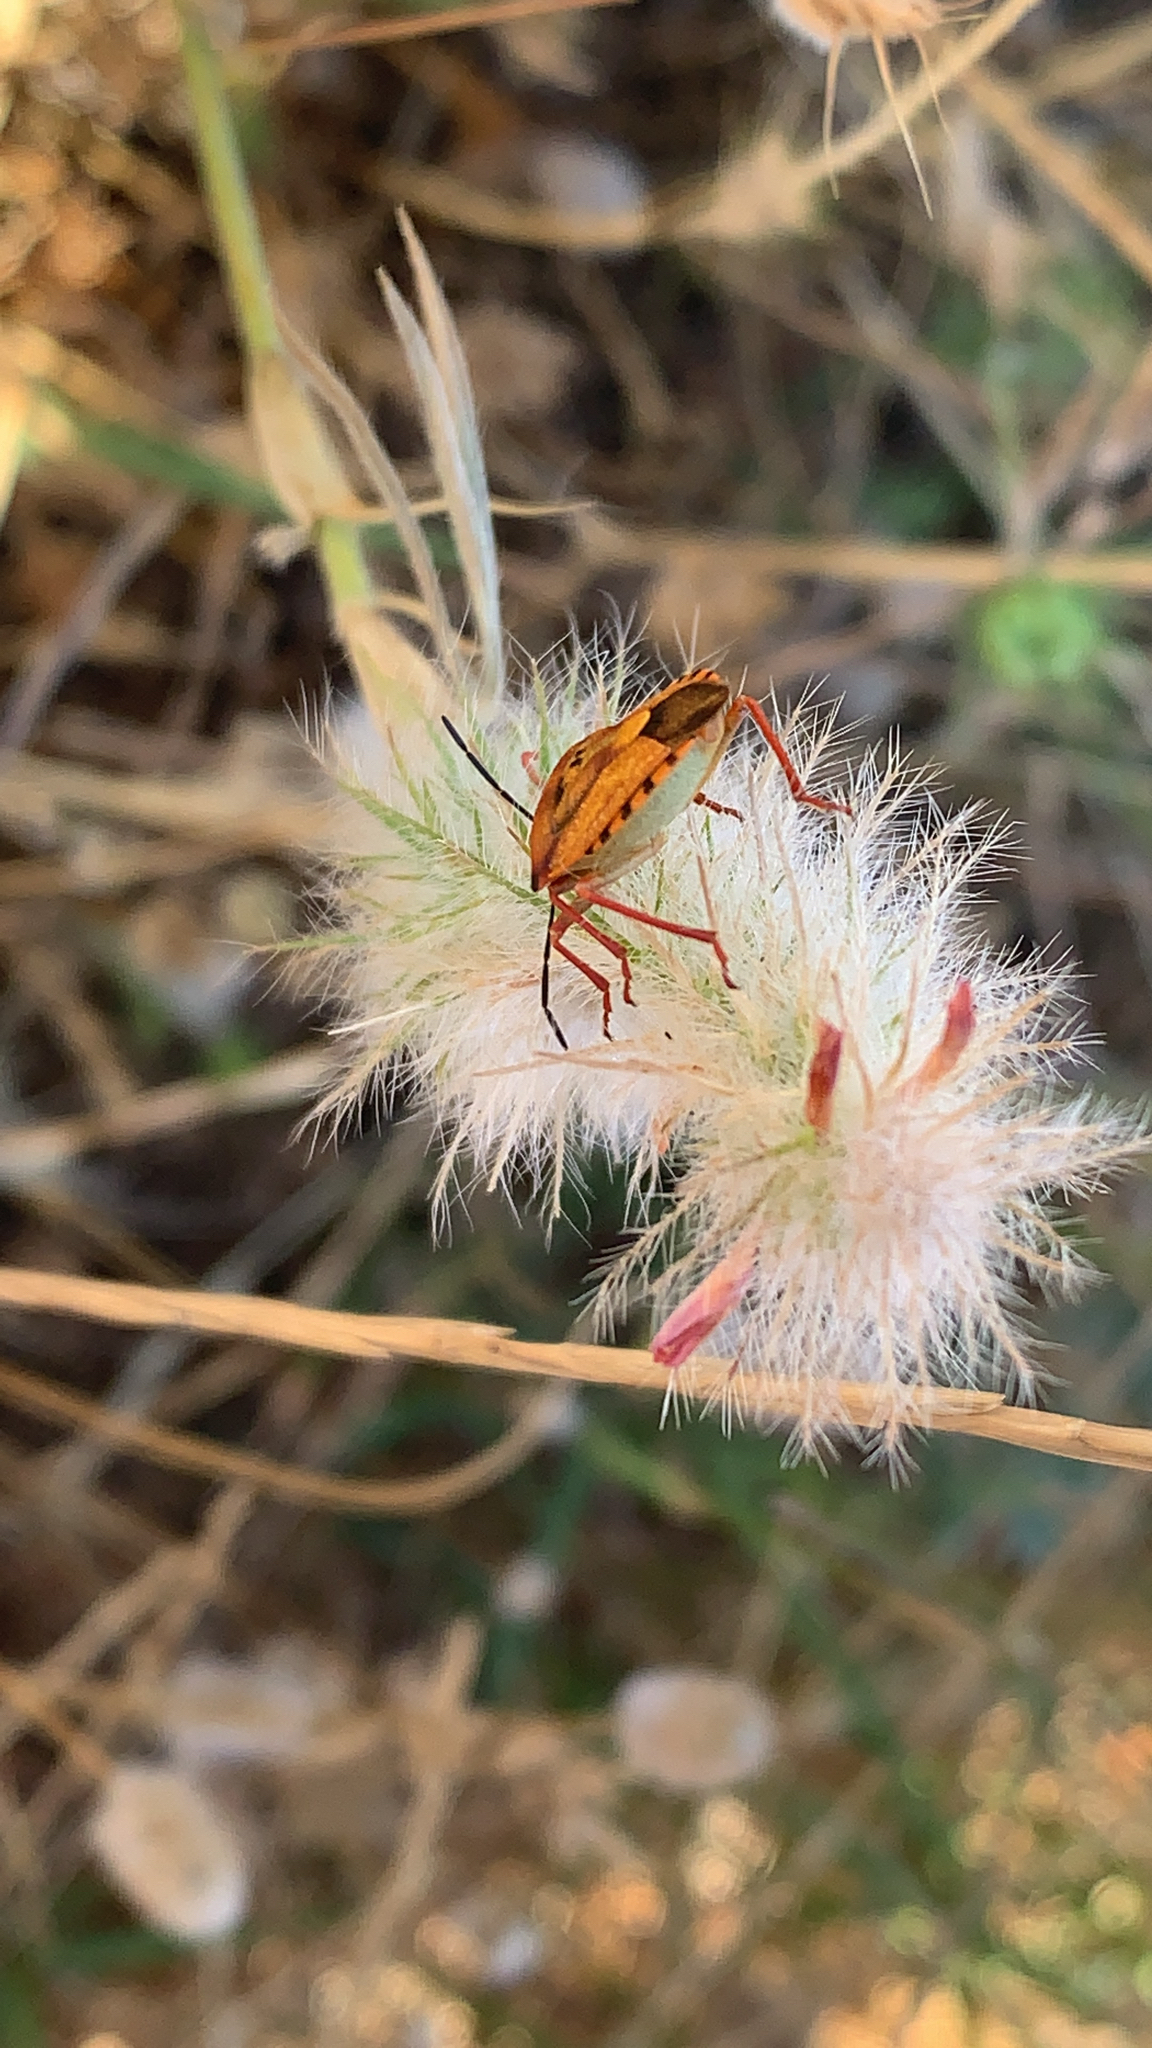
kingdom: Animalia
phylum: Arthropoda
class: Insecta
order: Hemiptera
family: Pentatomidae
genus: Carpocoris
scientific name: Carpocoris mediterraneus
